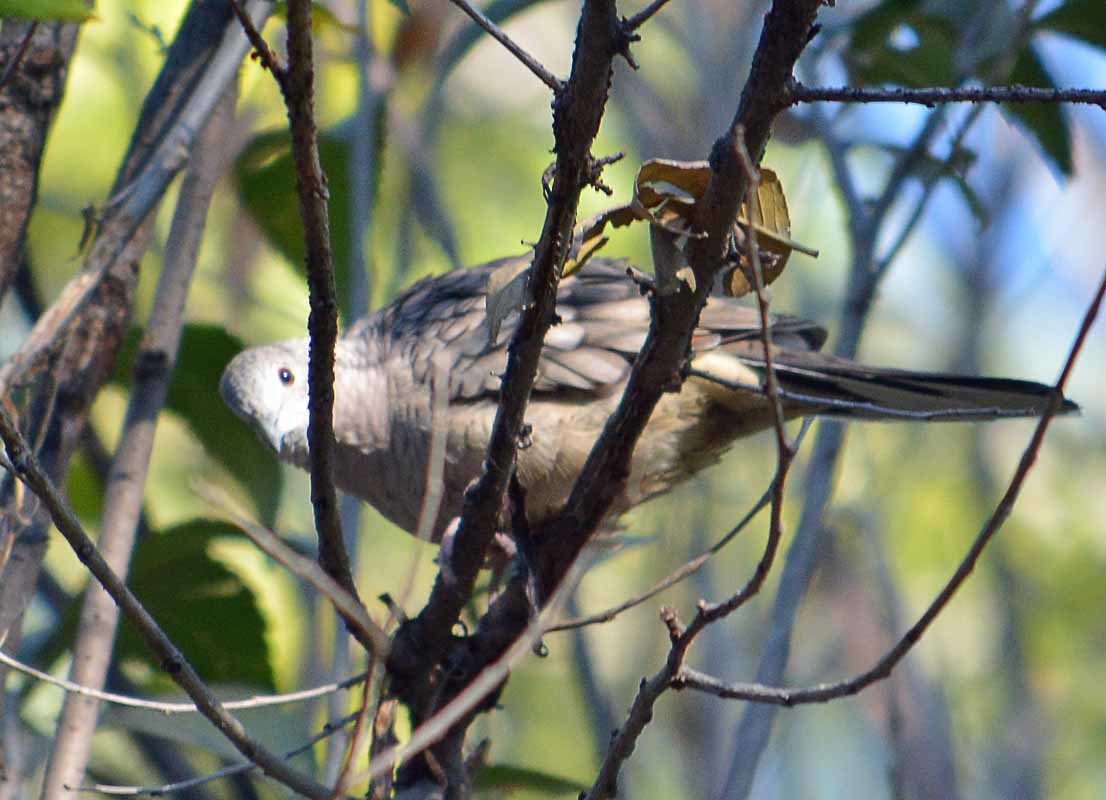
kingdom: Animalia
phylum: Chordata
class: Aves
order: Columbiformes
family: Columbidae
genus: Columbina
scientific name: Columbina inca
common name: Inca dove
